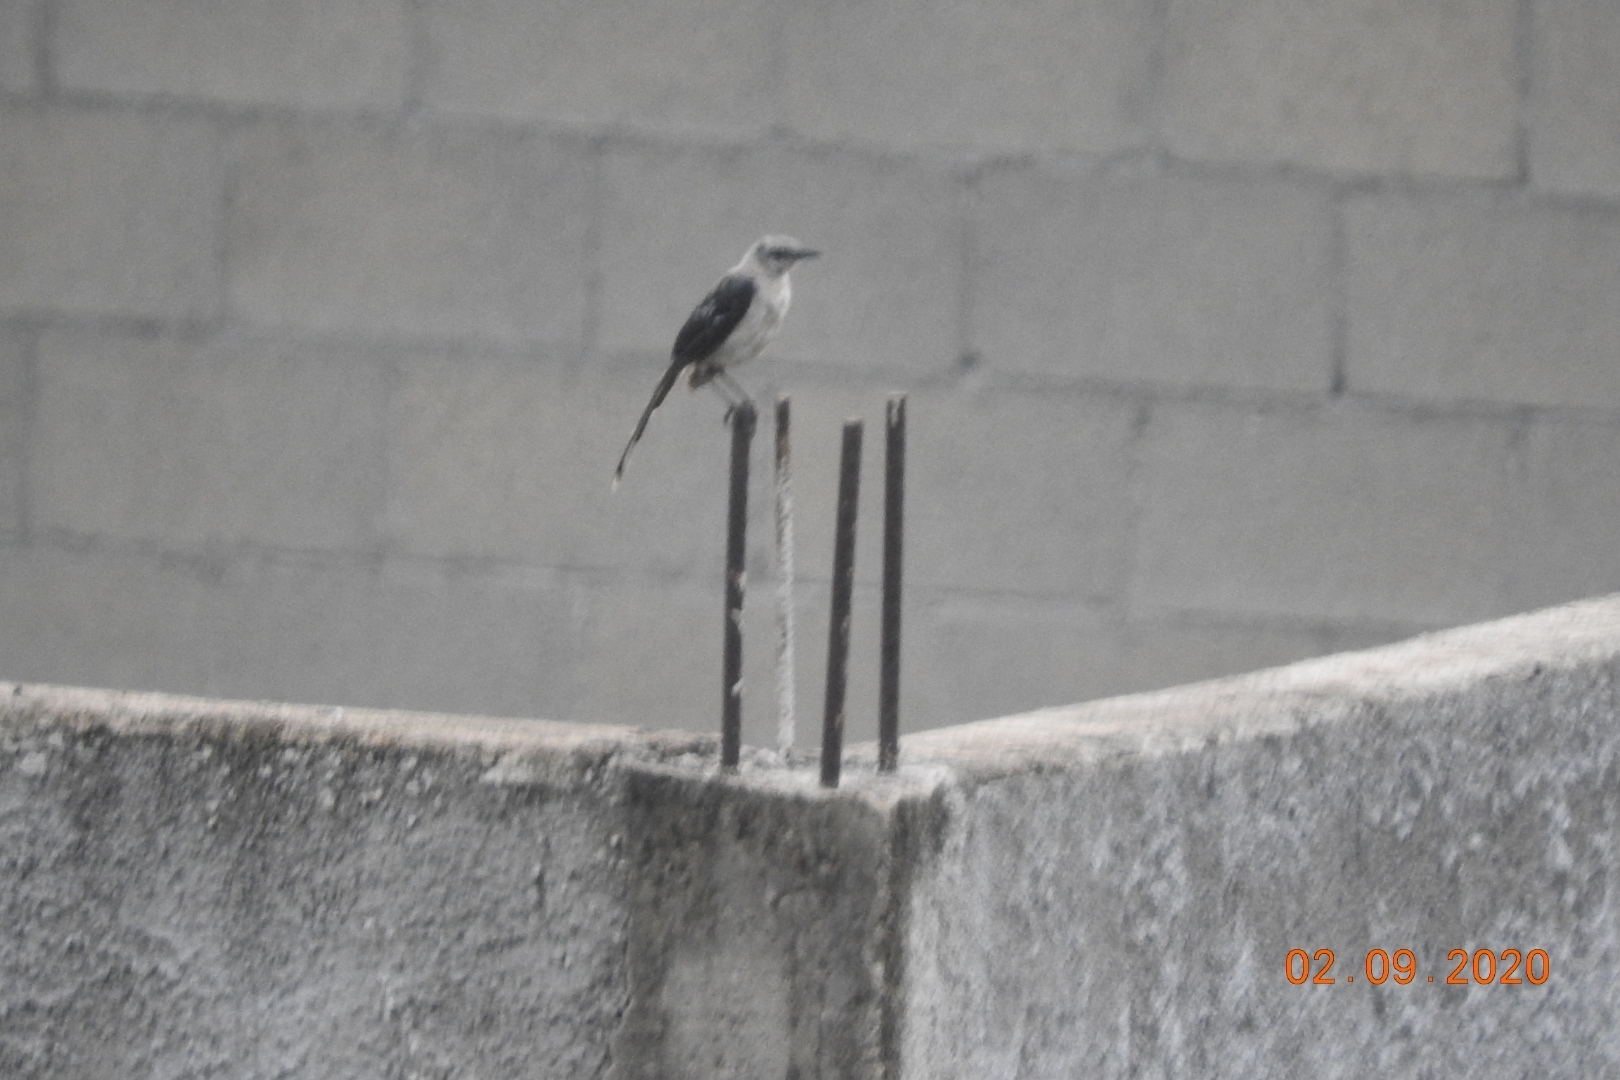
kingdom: Animalia
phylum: Chordata
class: Aves
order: Passeriformes
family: Mimidae
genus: Mimus
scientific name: Mimus gilvus
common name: Tropical mockingbird
